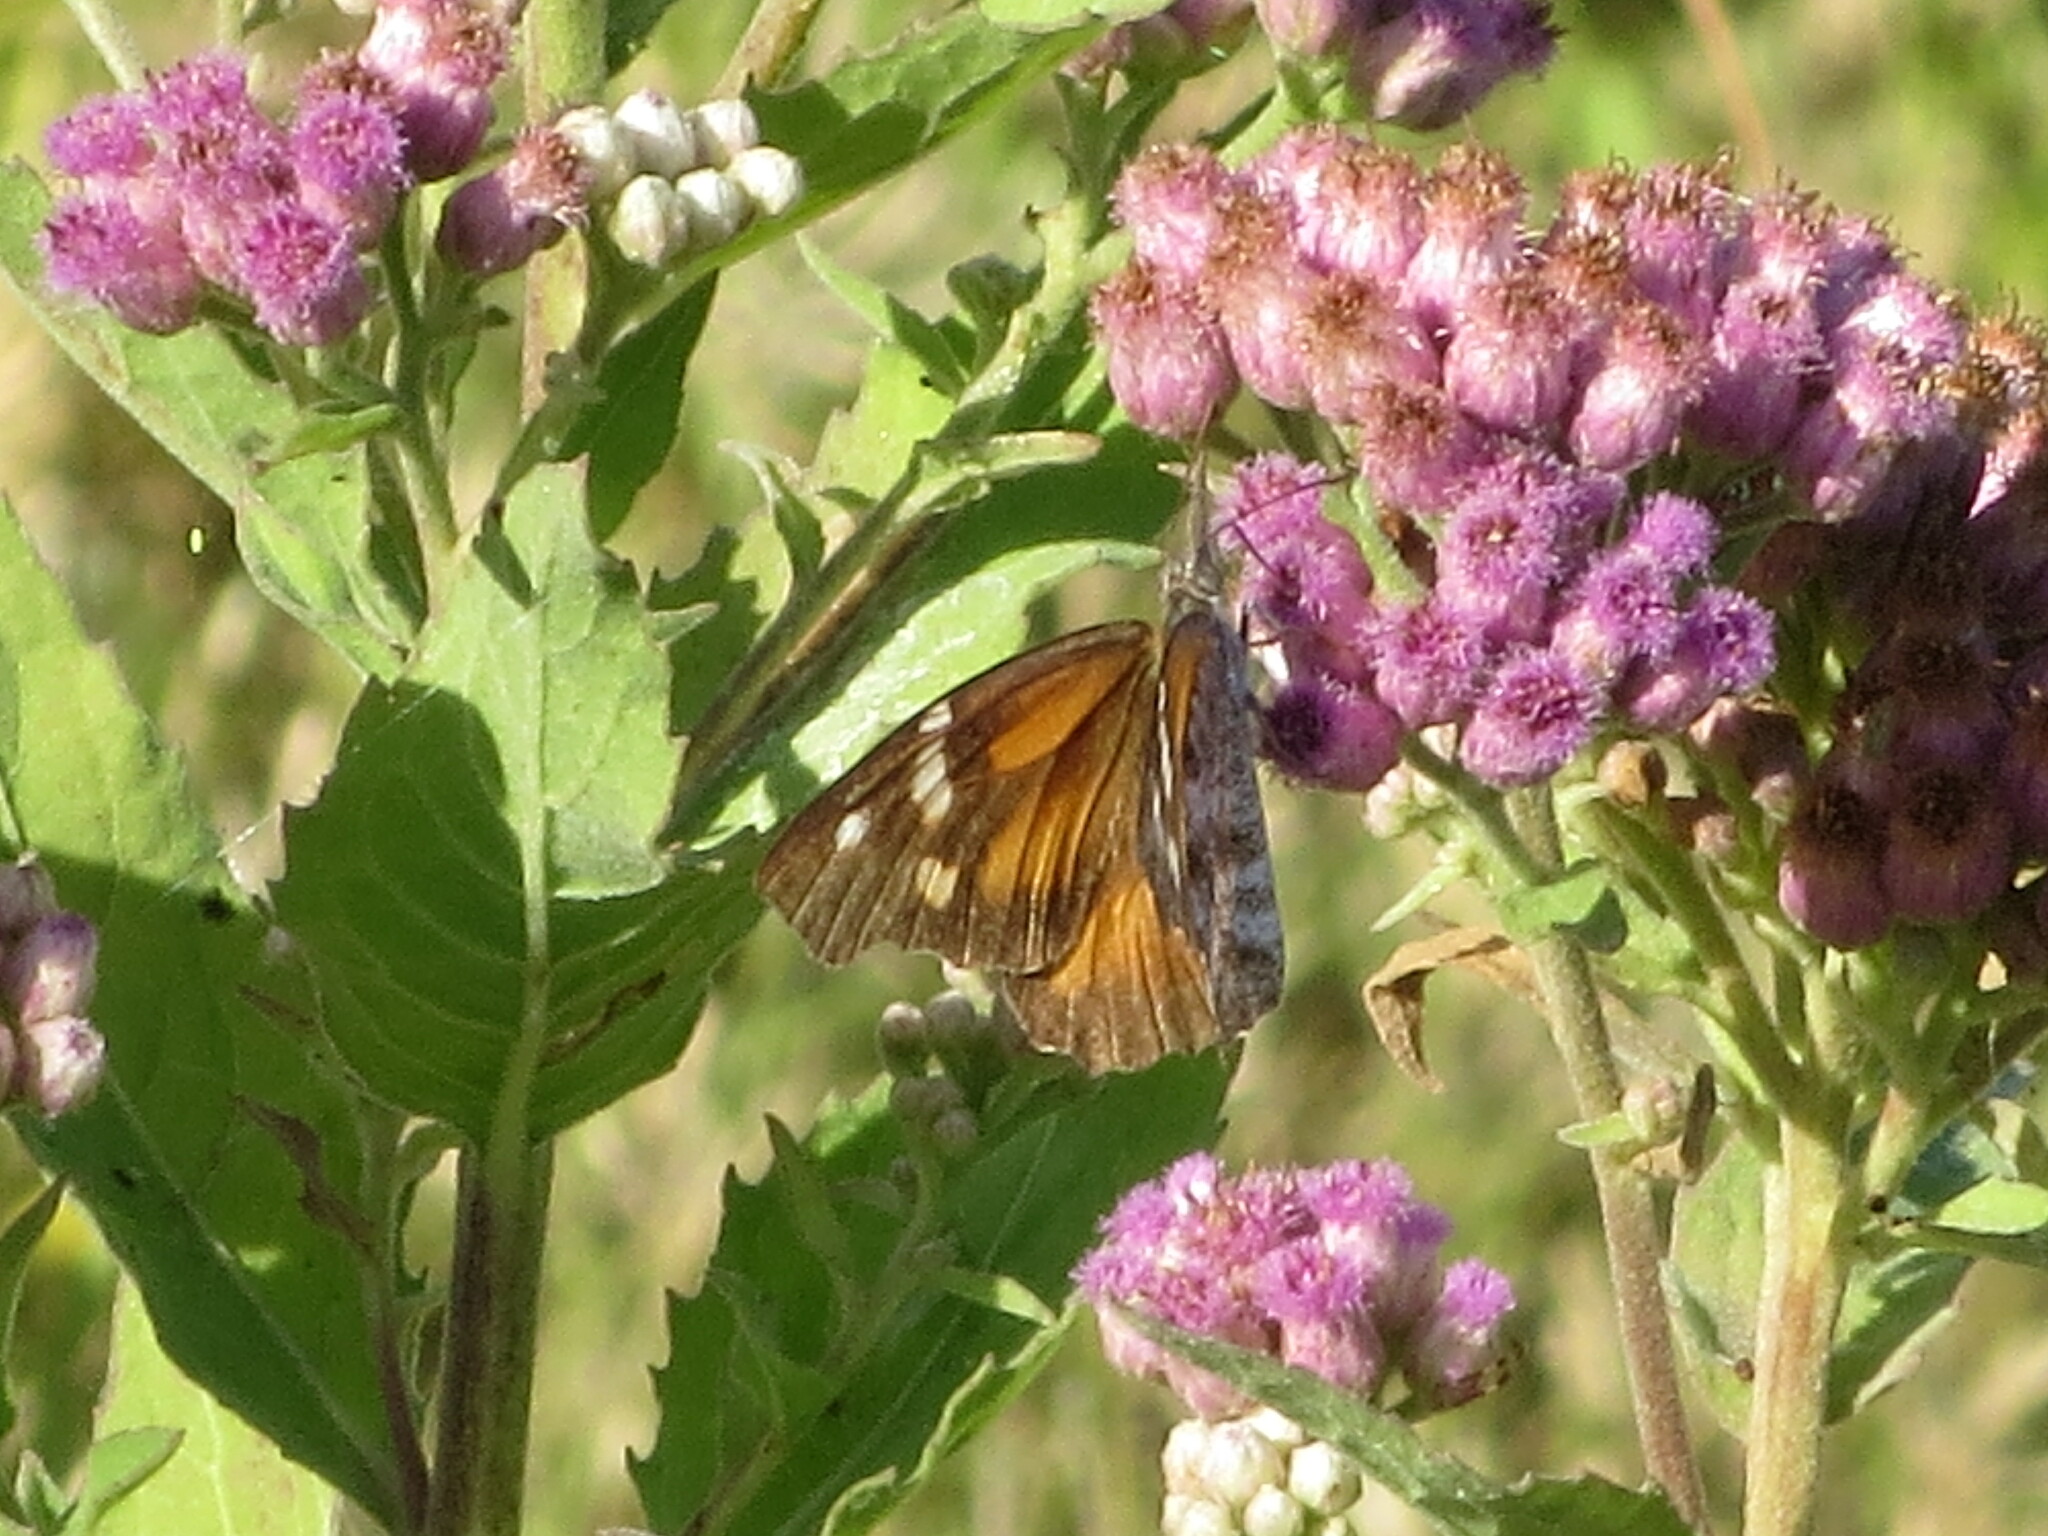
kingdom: Animalia
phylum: Arthropoda
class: Insecta
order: Lepidoptera
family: Nymphalidae
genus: Libytheana
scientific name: Libytheana carinenta
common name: American snout
